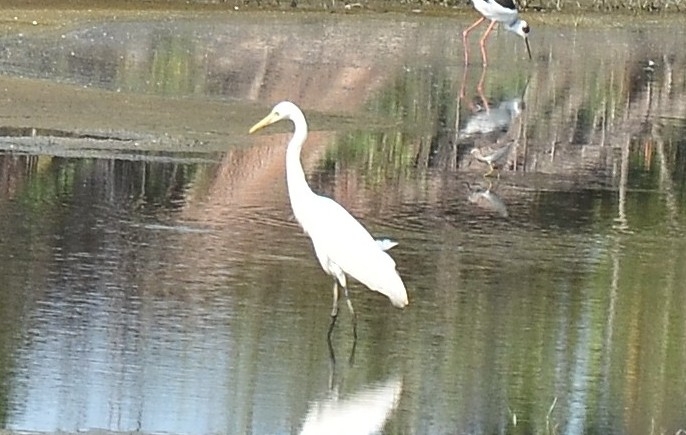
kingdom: Animalia
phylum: Chordata
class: Aves
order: Pelecaniformes
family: Ardeidae
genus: Egretta
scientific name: Egretta intermedia
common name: Intermediate egret
